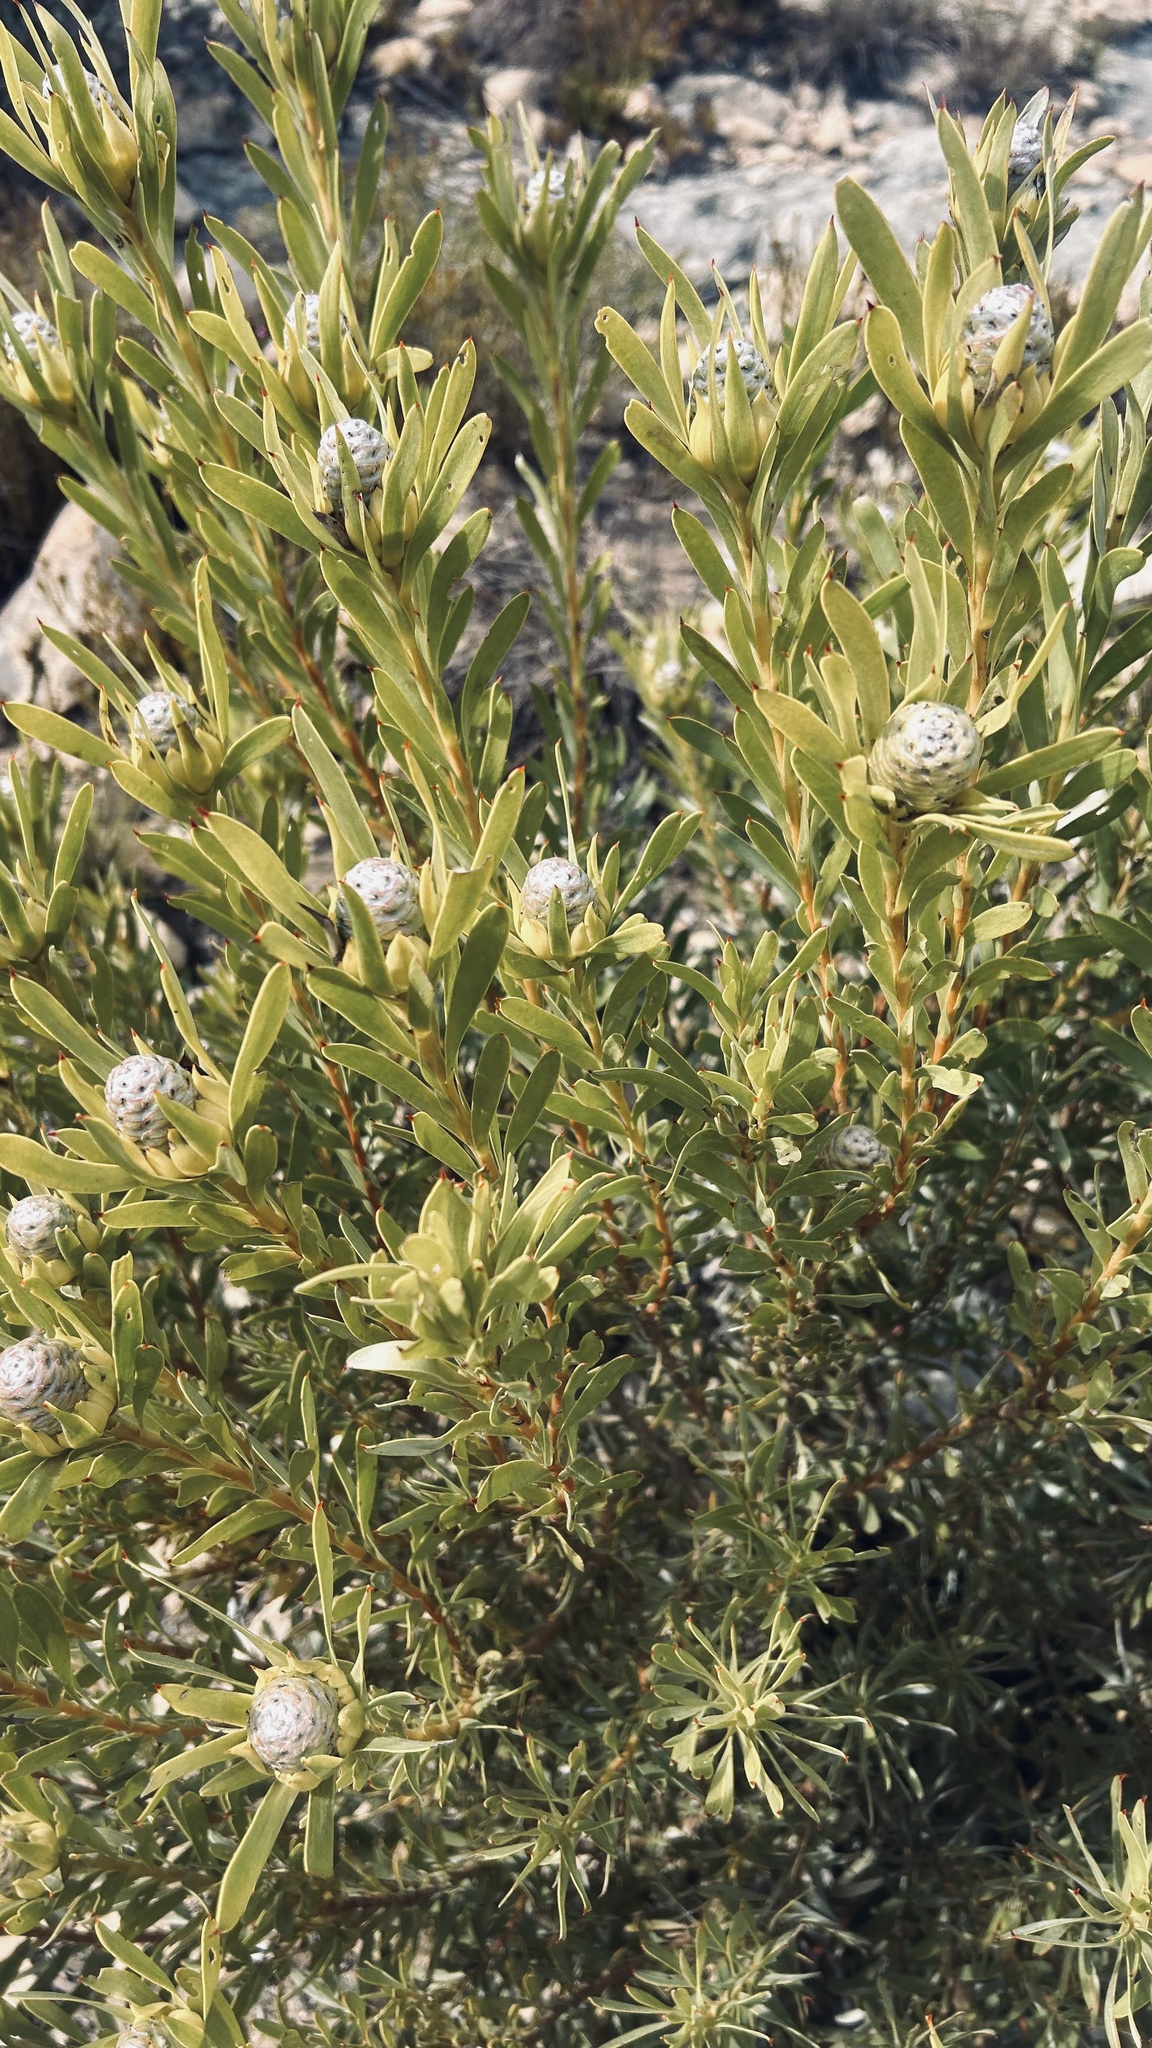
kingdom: Plantae
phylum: Tracheophyta
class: Magnoliopsida
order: Proteales
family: Proteaceae
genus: Leucadendron
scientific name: Leucadendron meridianum
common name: Limestone conebush
